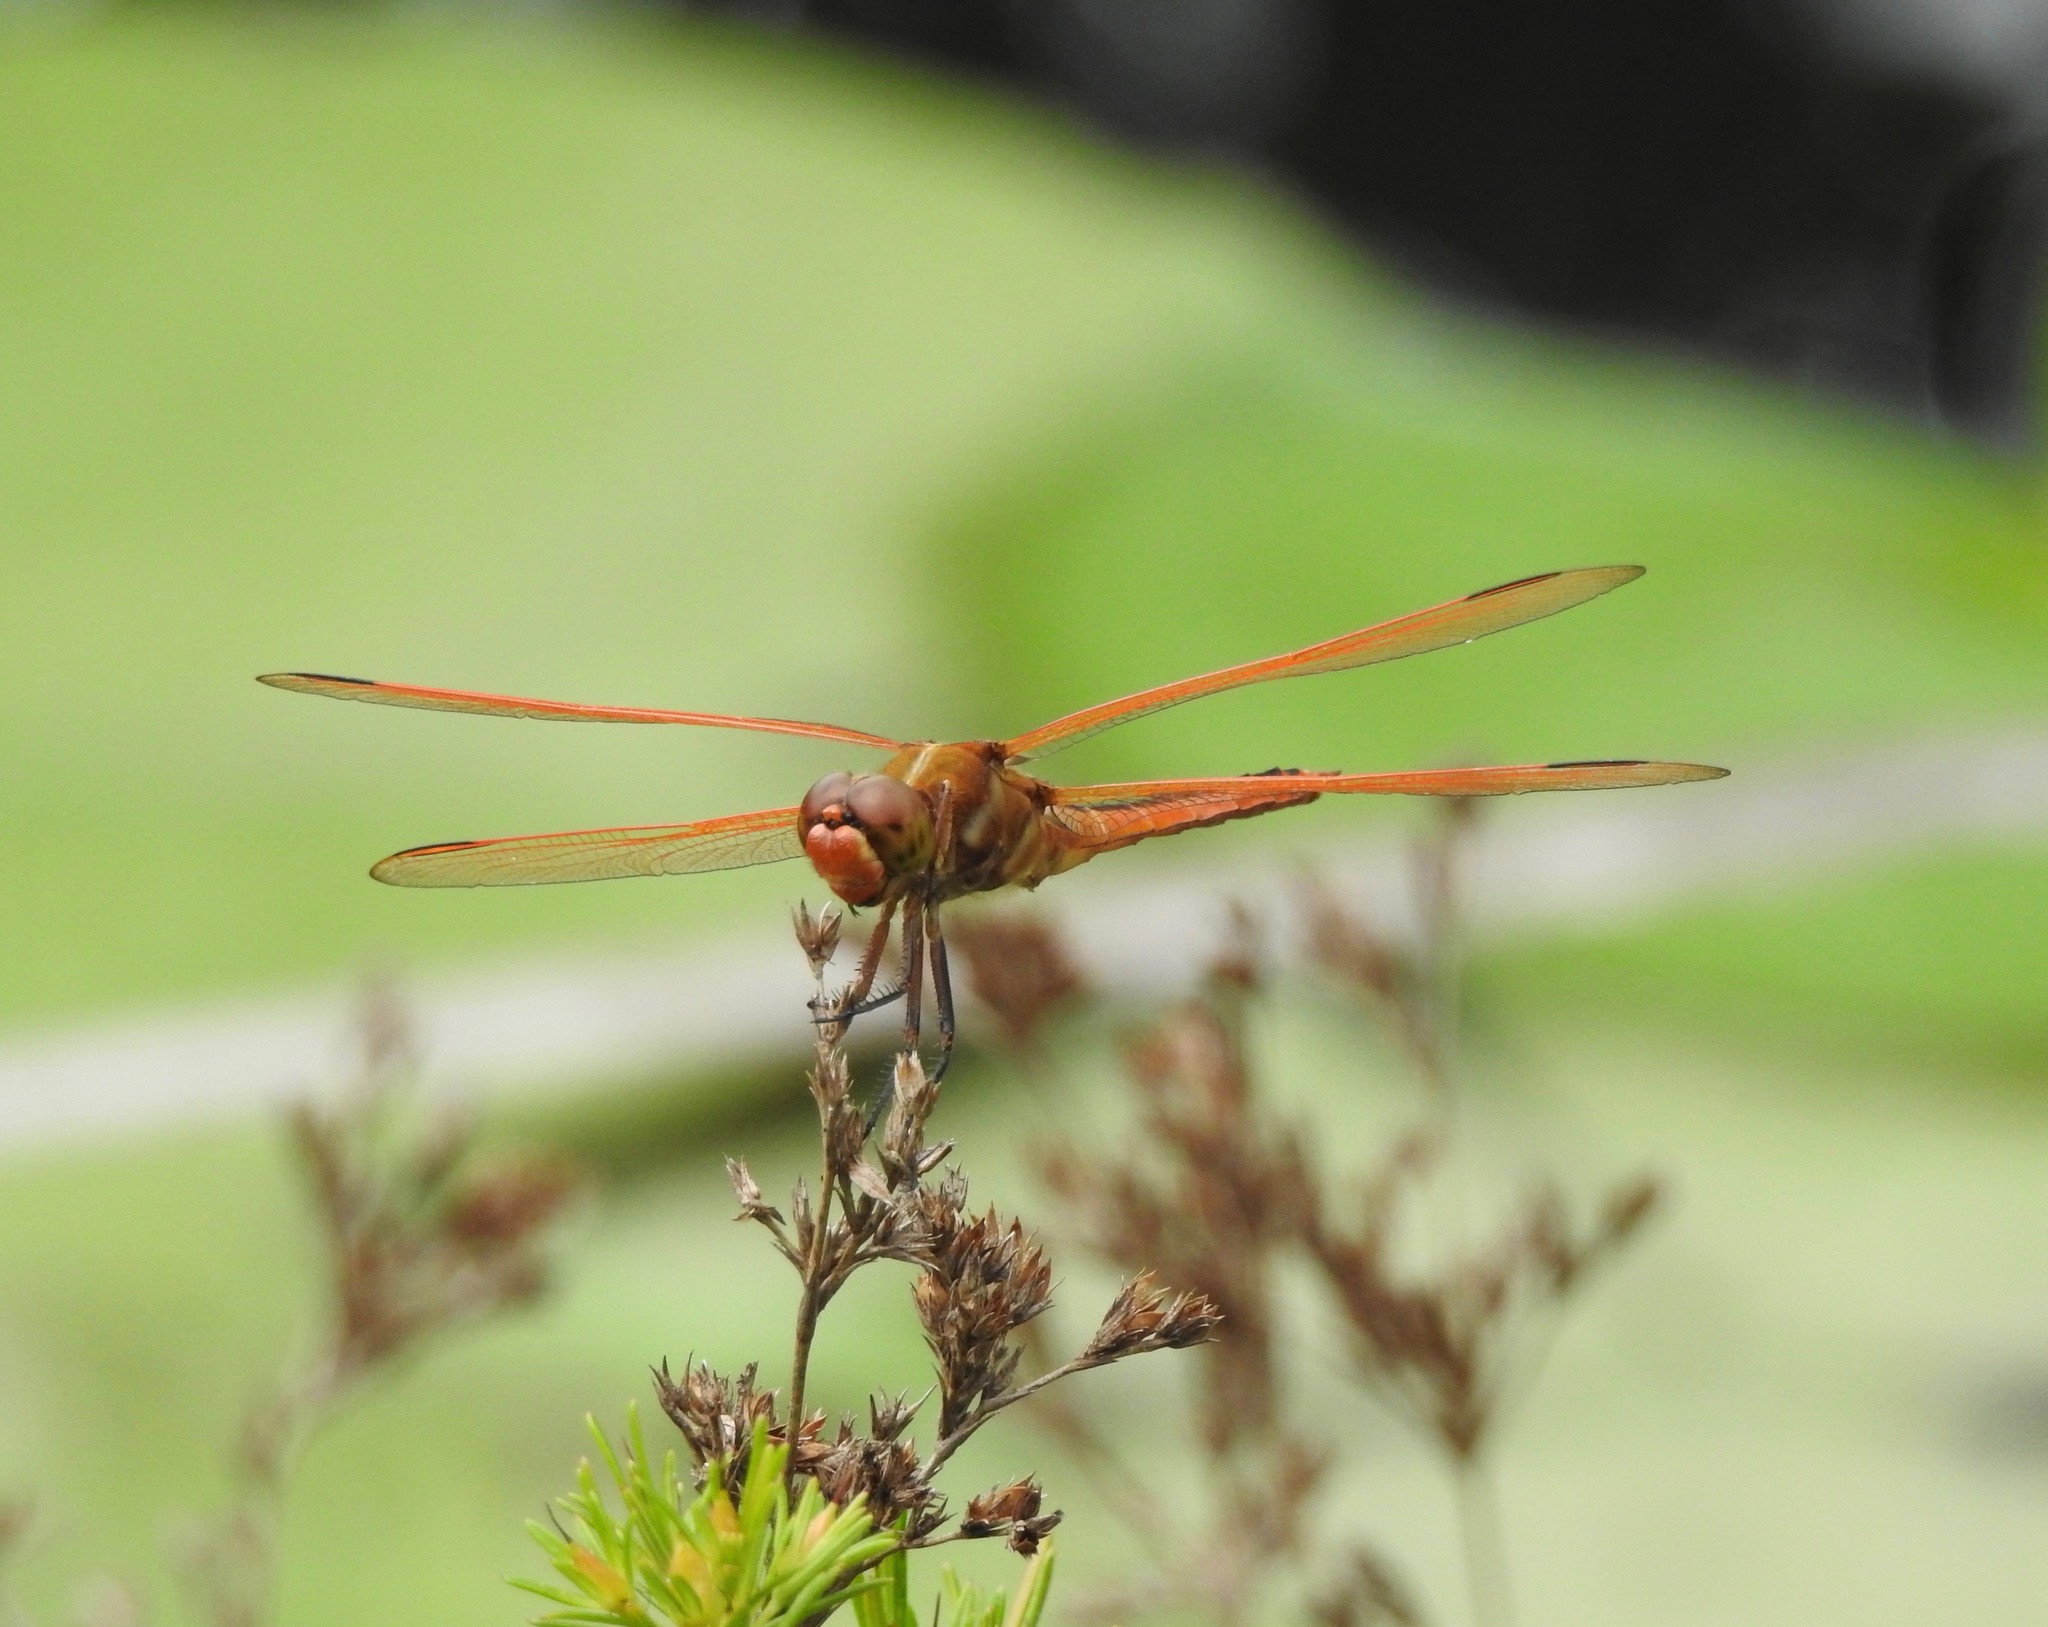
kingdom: Animalia
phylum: Arthropoda
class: Insecta
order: Odonata
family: Libellulidae
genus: Libellula
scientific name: Libellula auripennis
